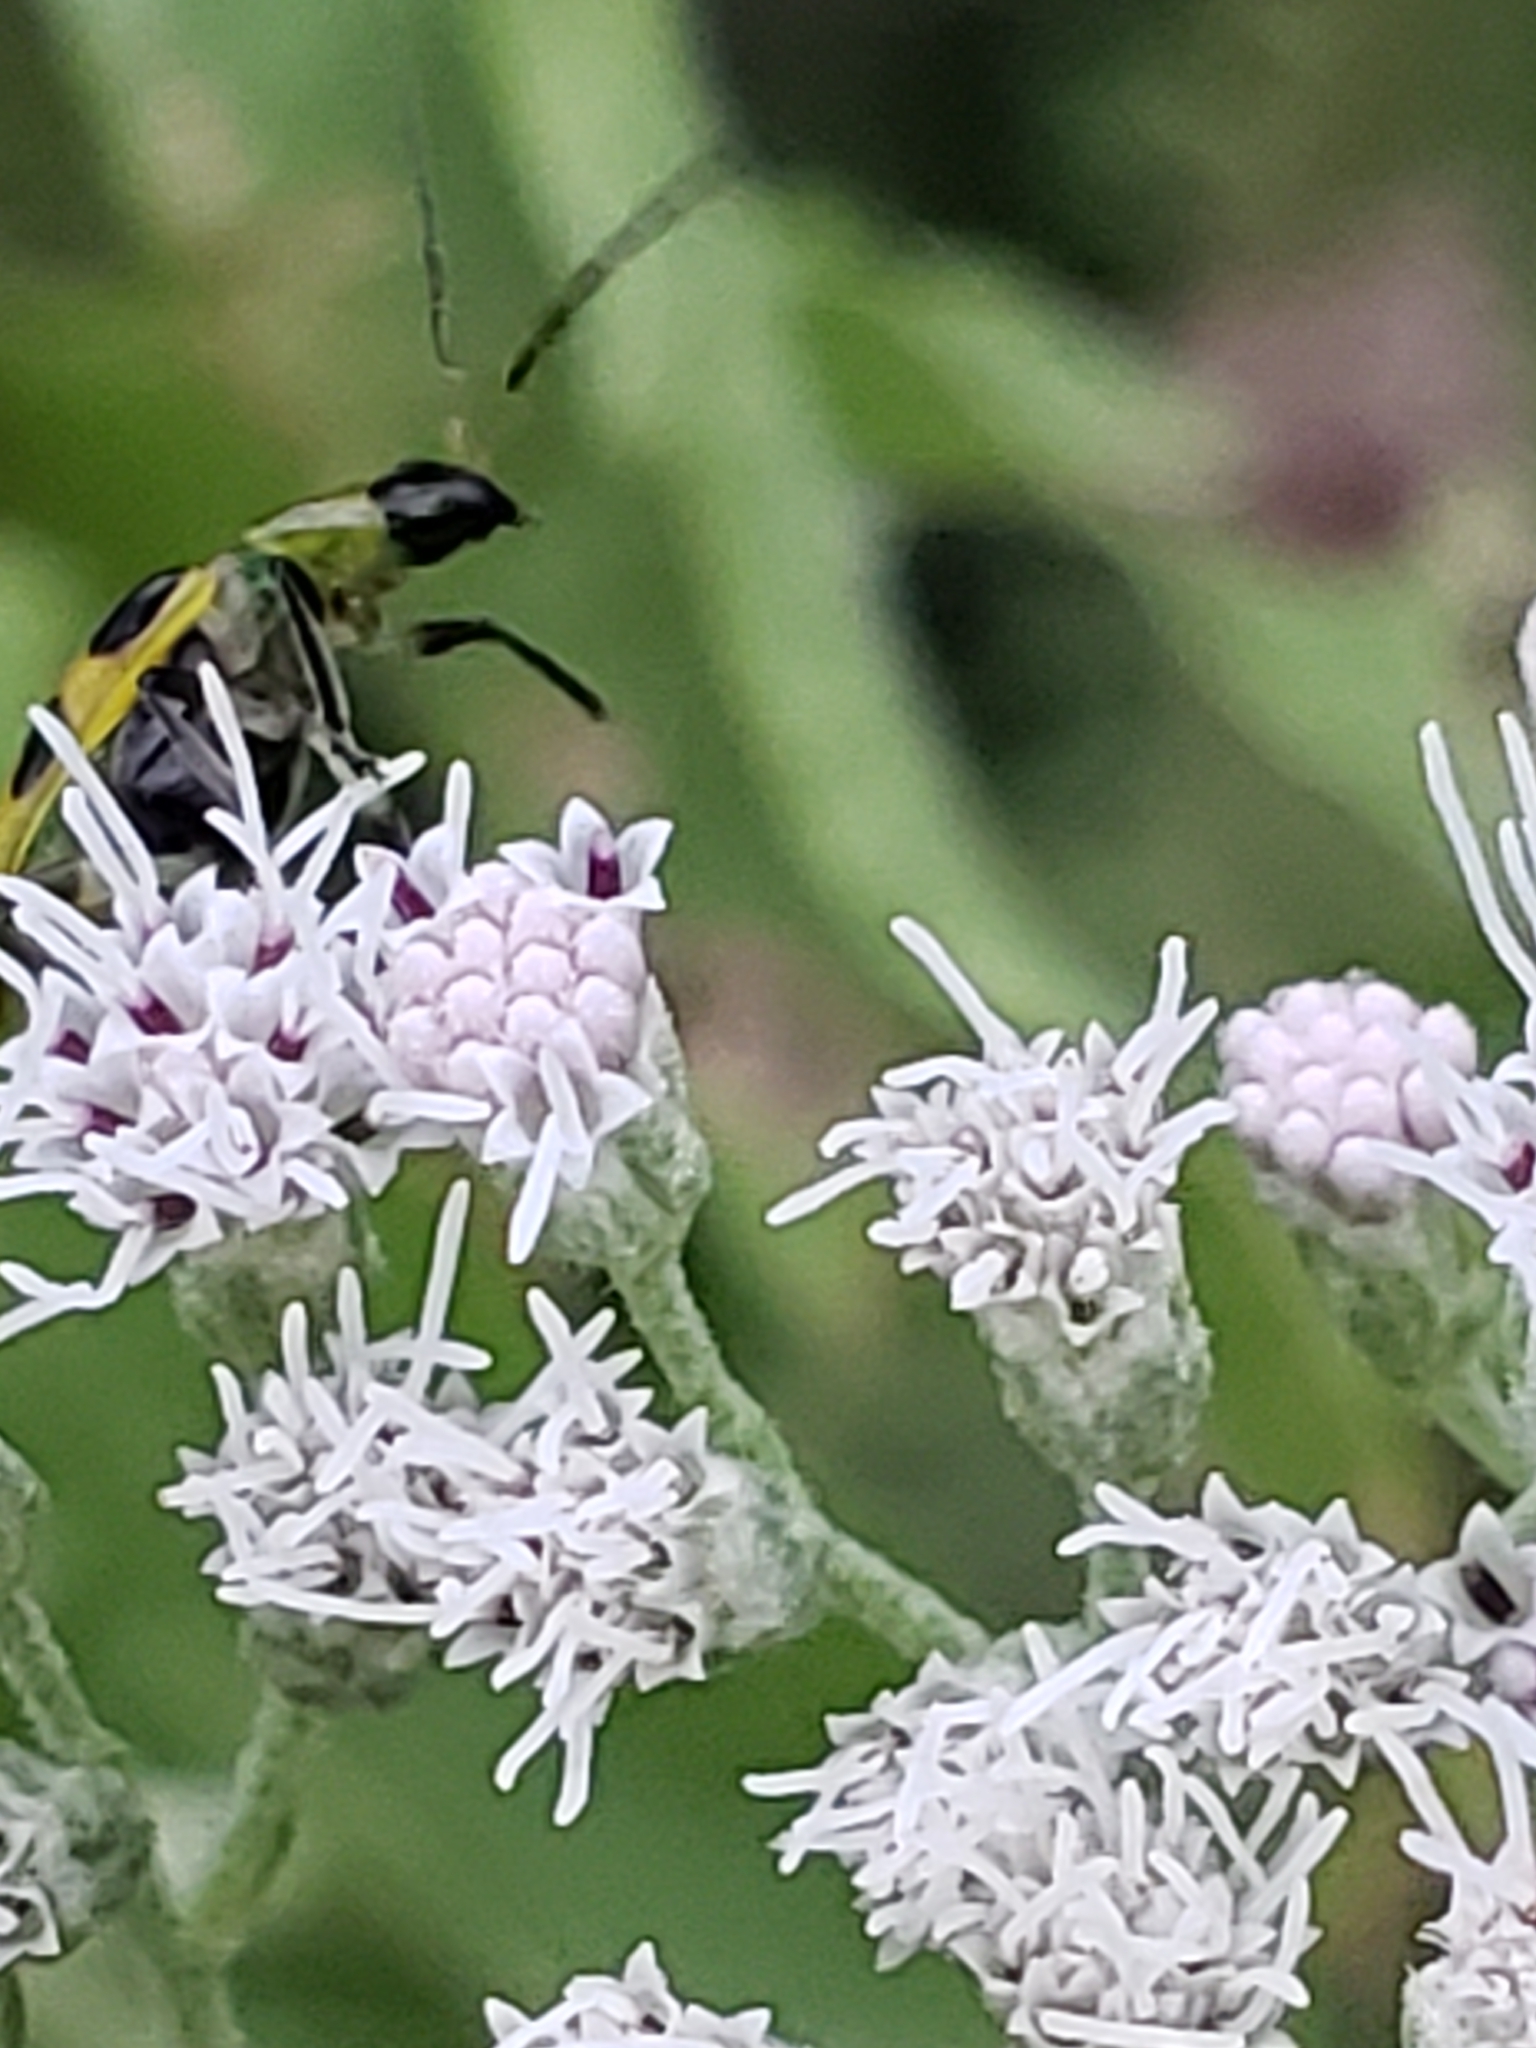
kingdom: Animalia
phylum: Arthropoda
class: Insecta
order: Coleoptera
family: Chrysomelidae
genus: Diabrotica
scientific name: Diabrotica undecimpunctata
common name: Spotted cucumber beetle
